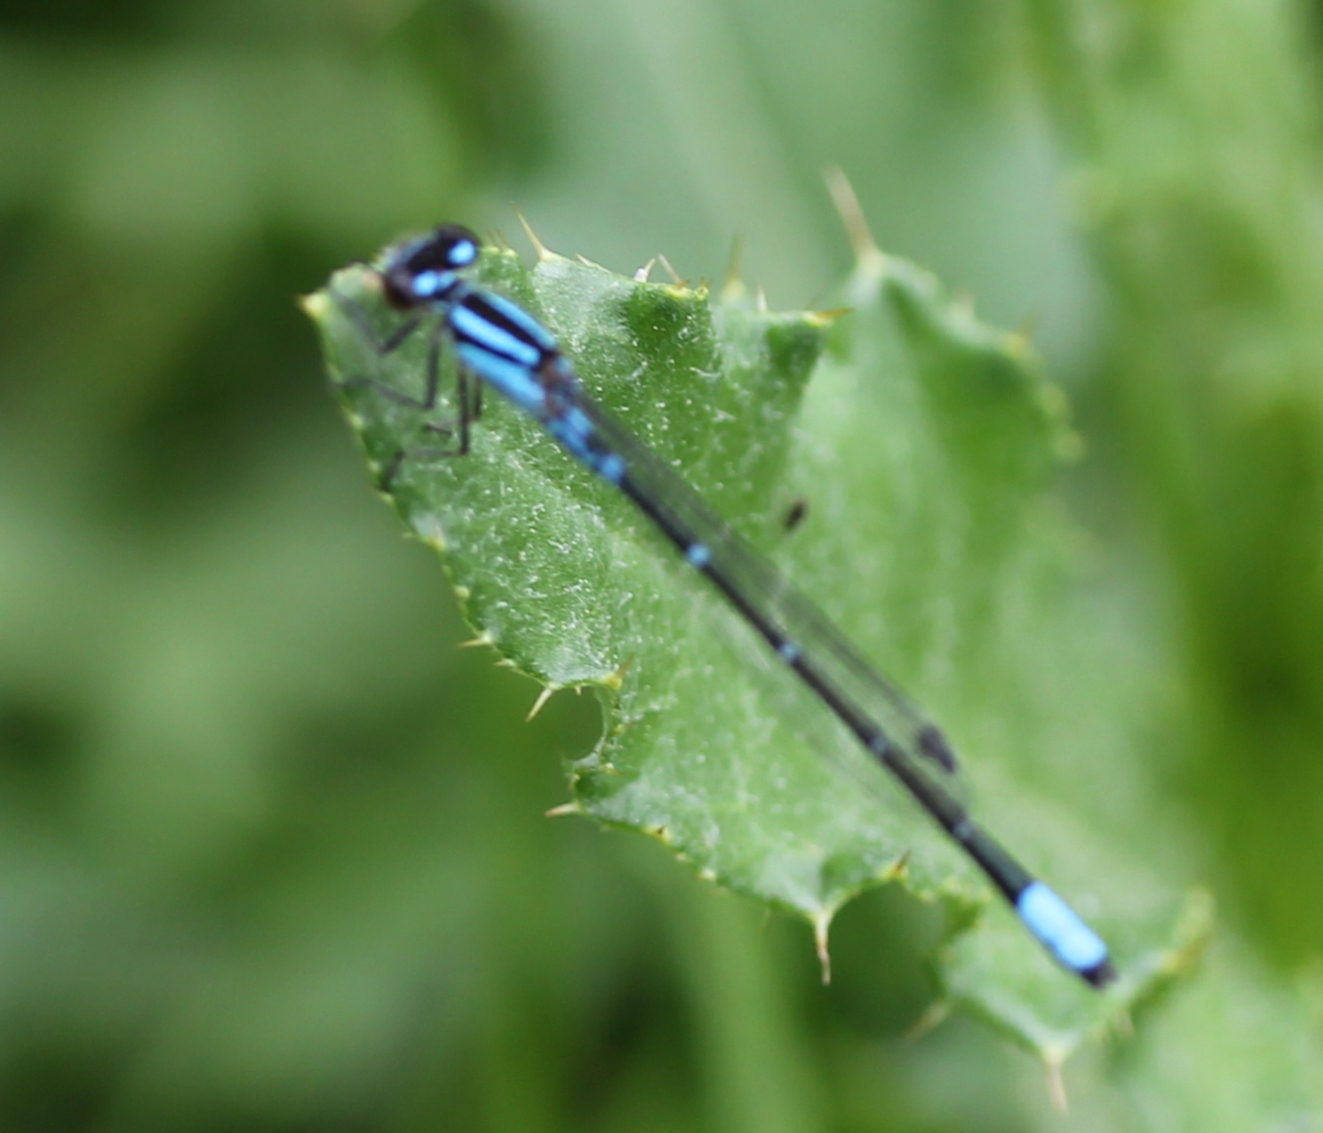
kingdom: Animalia
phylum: Arthropoda
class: Insecta
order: Odonata
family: Coenagrionidae
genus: Enallagma
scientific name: Enallagma geminatum
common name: Skimming bluet
